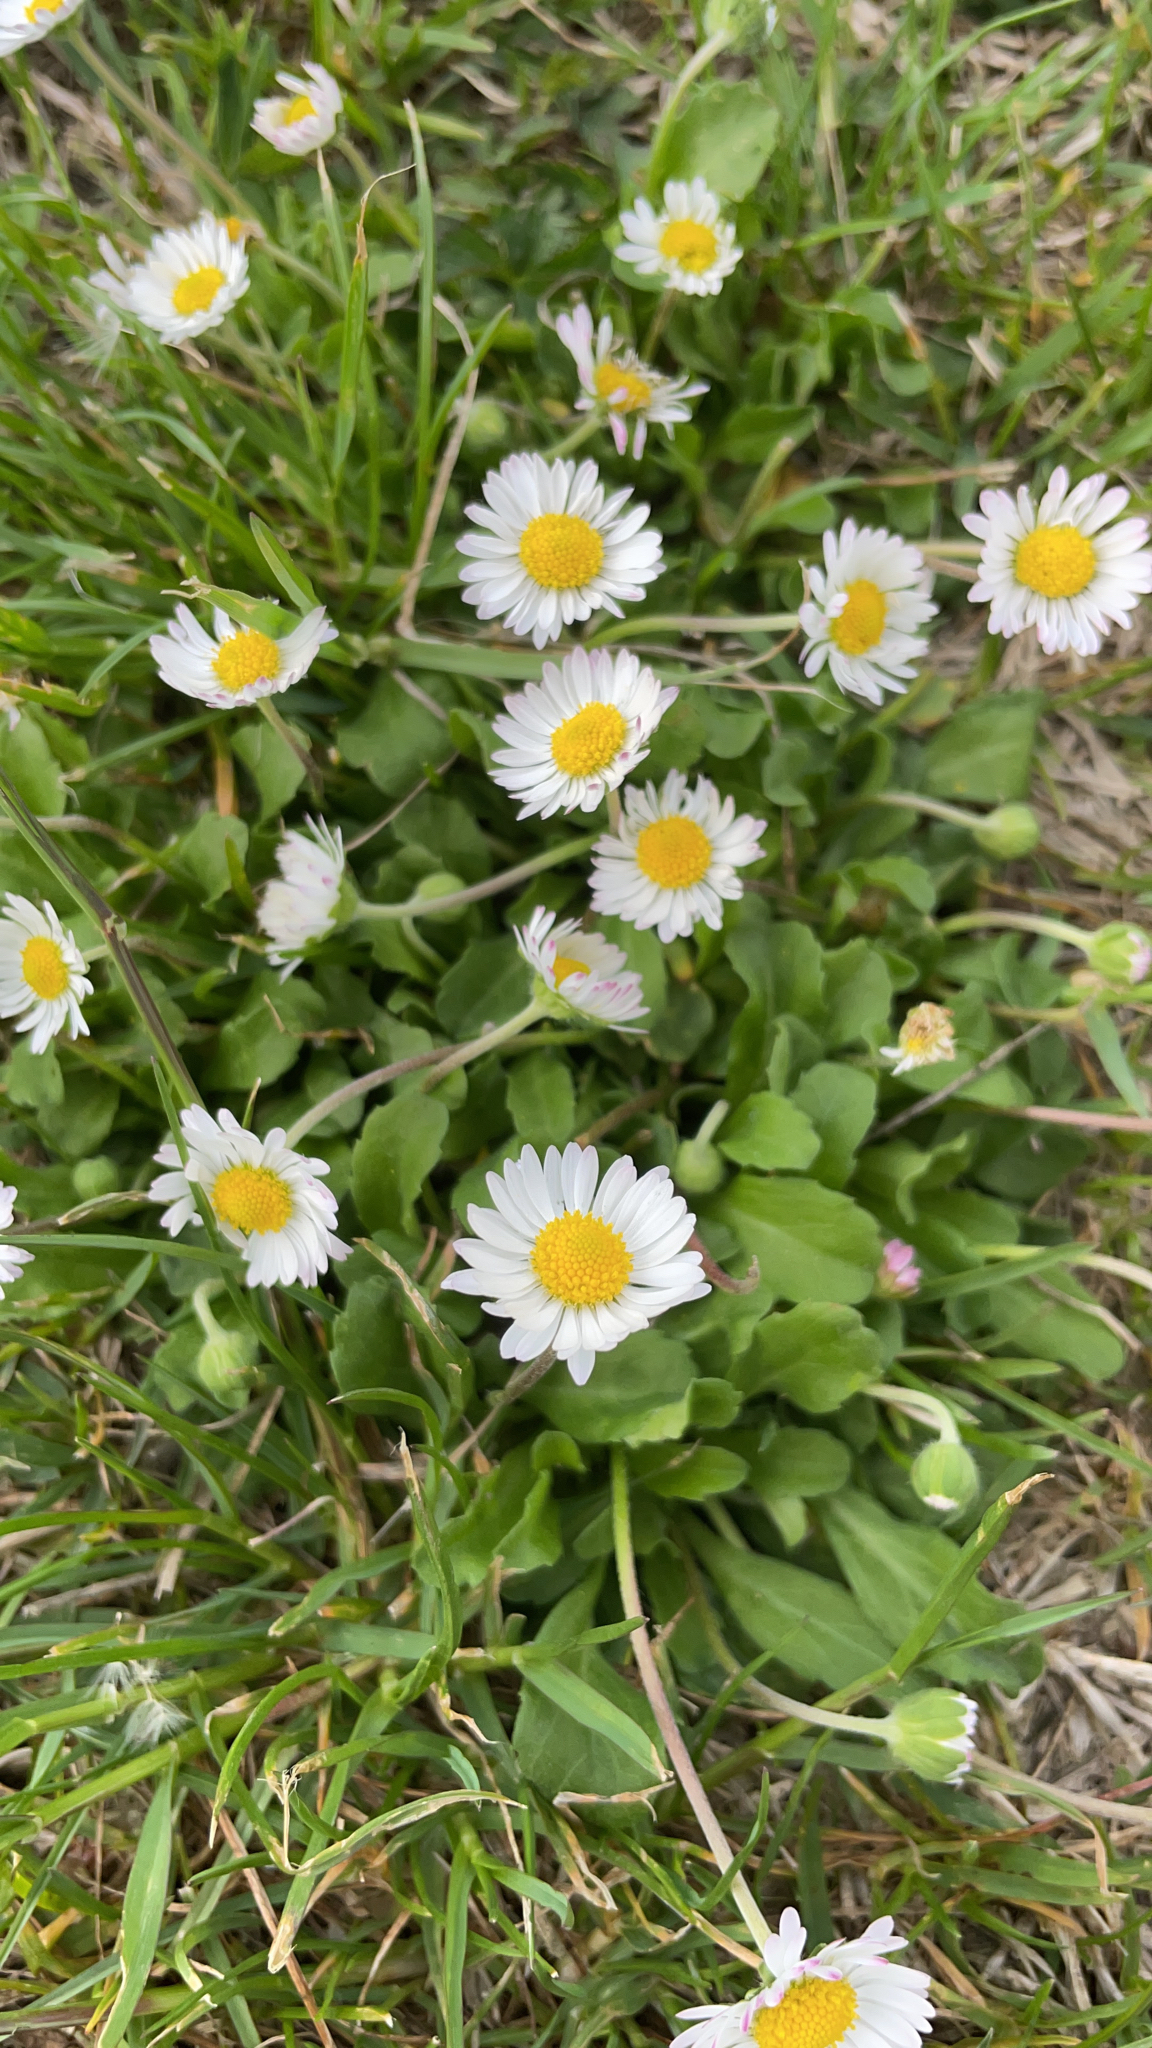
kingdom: Plantae
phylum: Tracheophyta
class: Magnoliopsida
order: Asterales
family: Asteraceae
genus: Bellis
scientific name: Bellis perennis
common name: Lawndaisy
